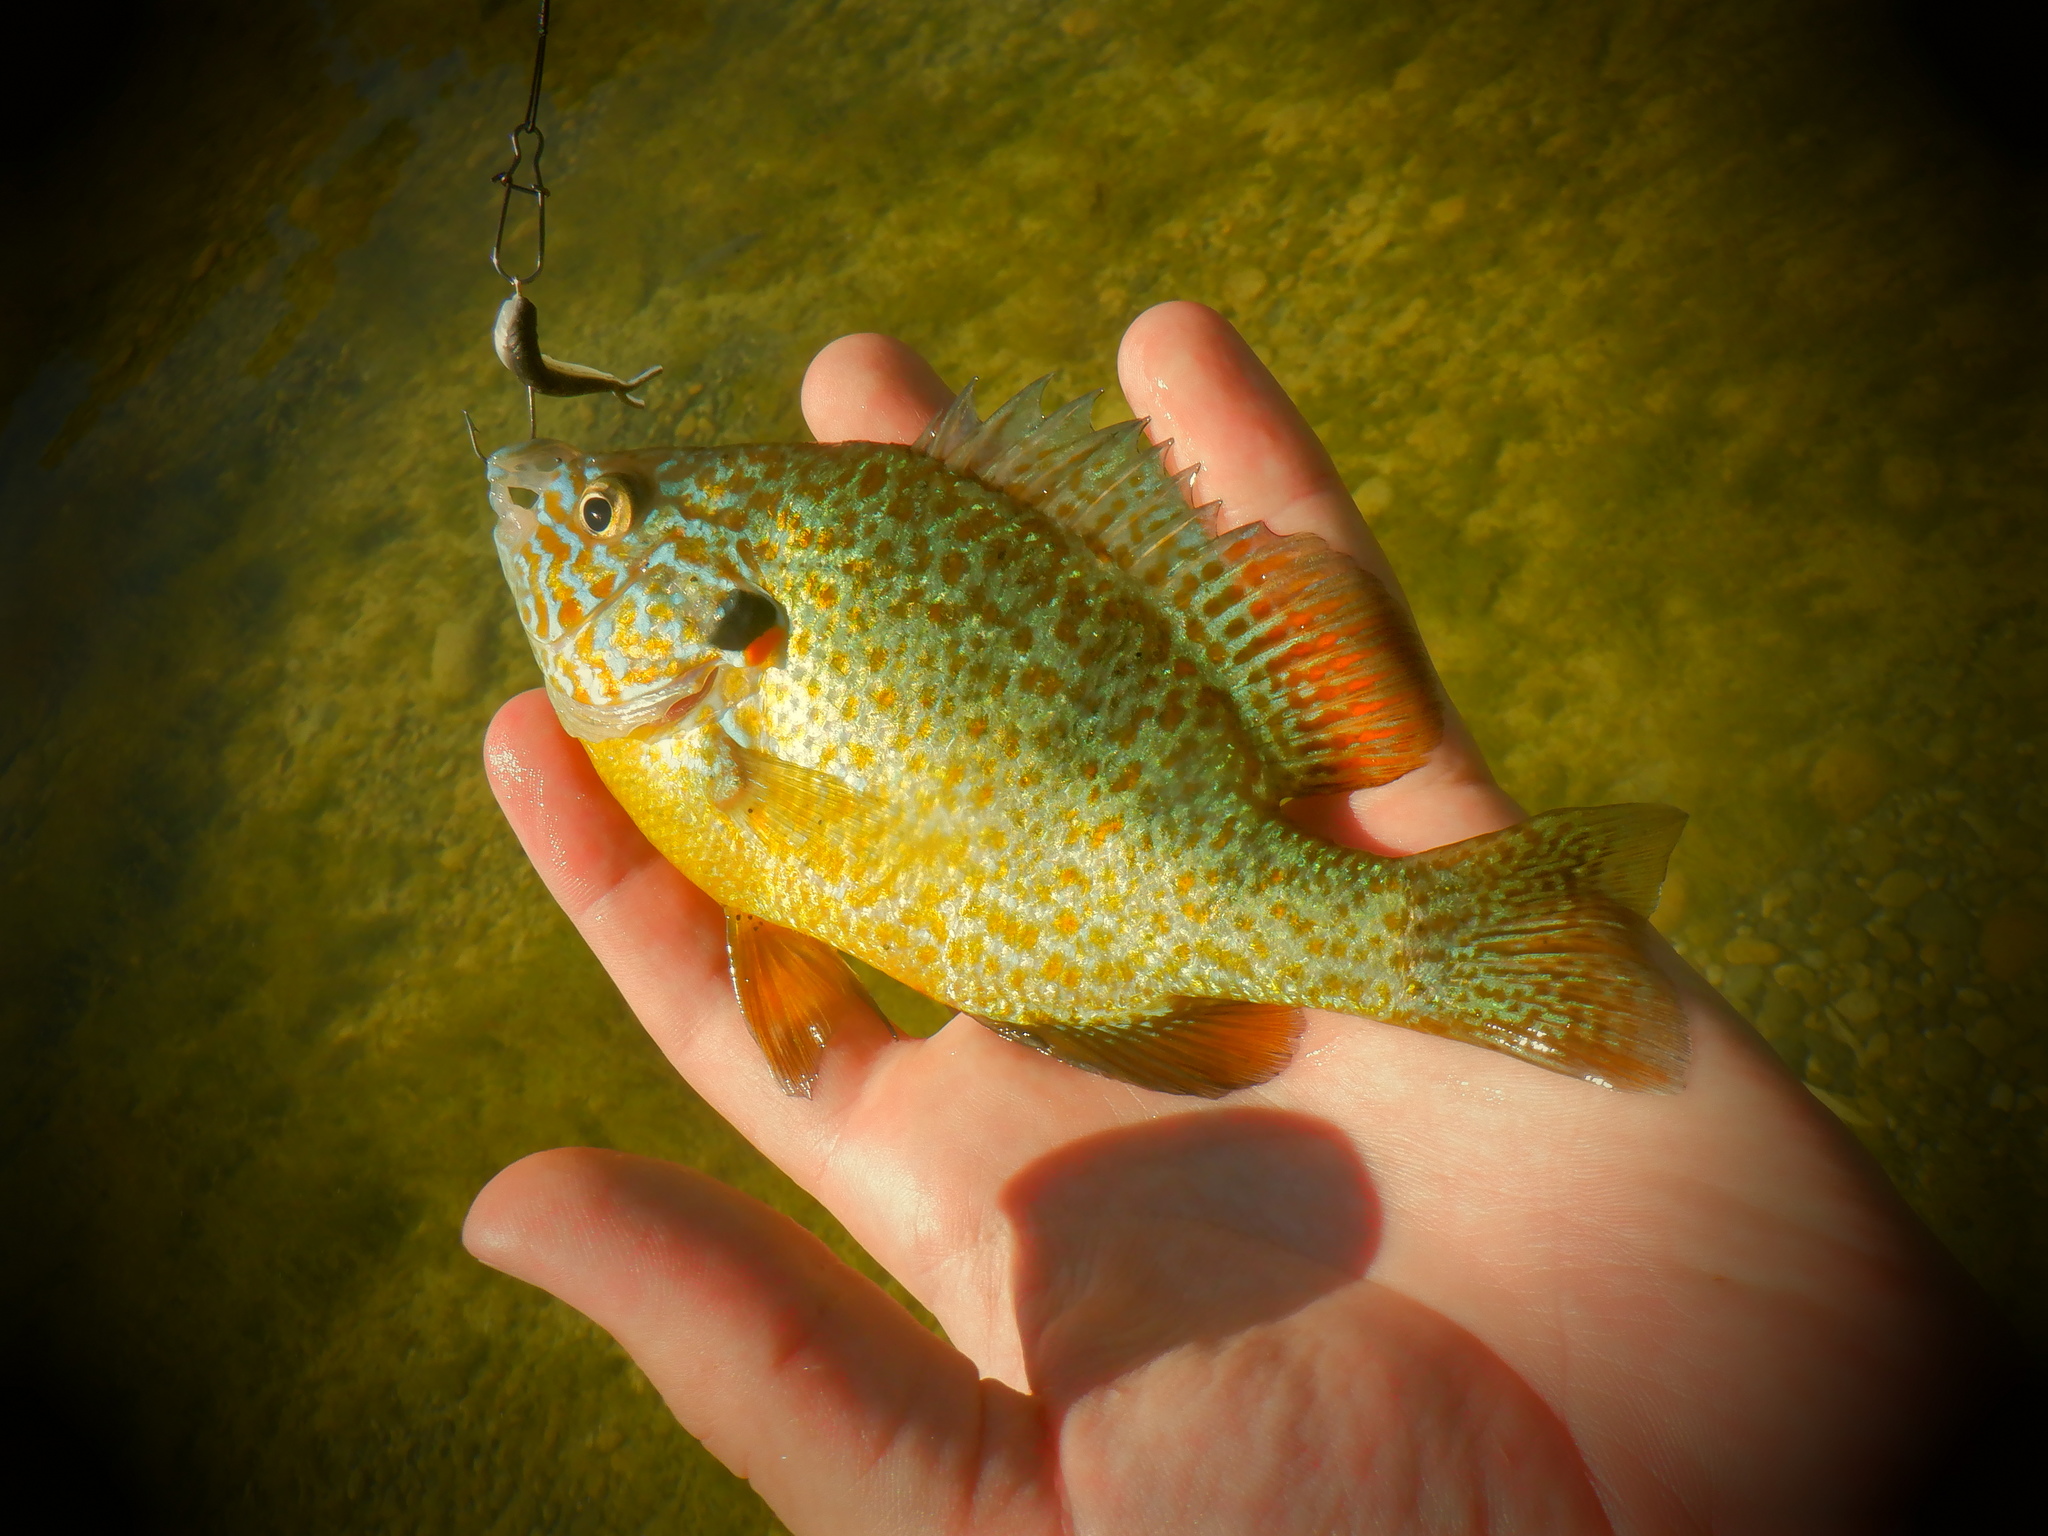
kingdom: Animalia
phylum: Chordata
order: Perciformes
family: Centrarchidae
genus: Lepomis
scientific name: Lepomis gibbosus
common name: Pumpkinseed
